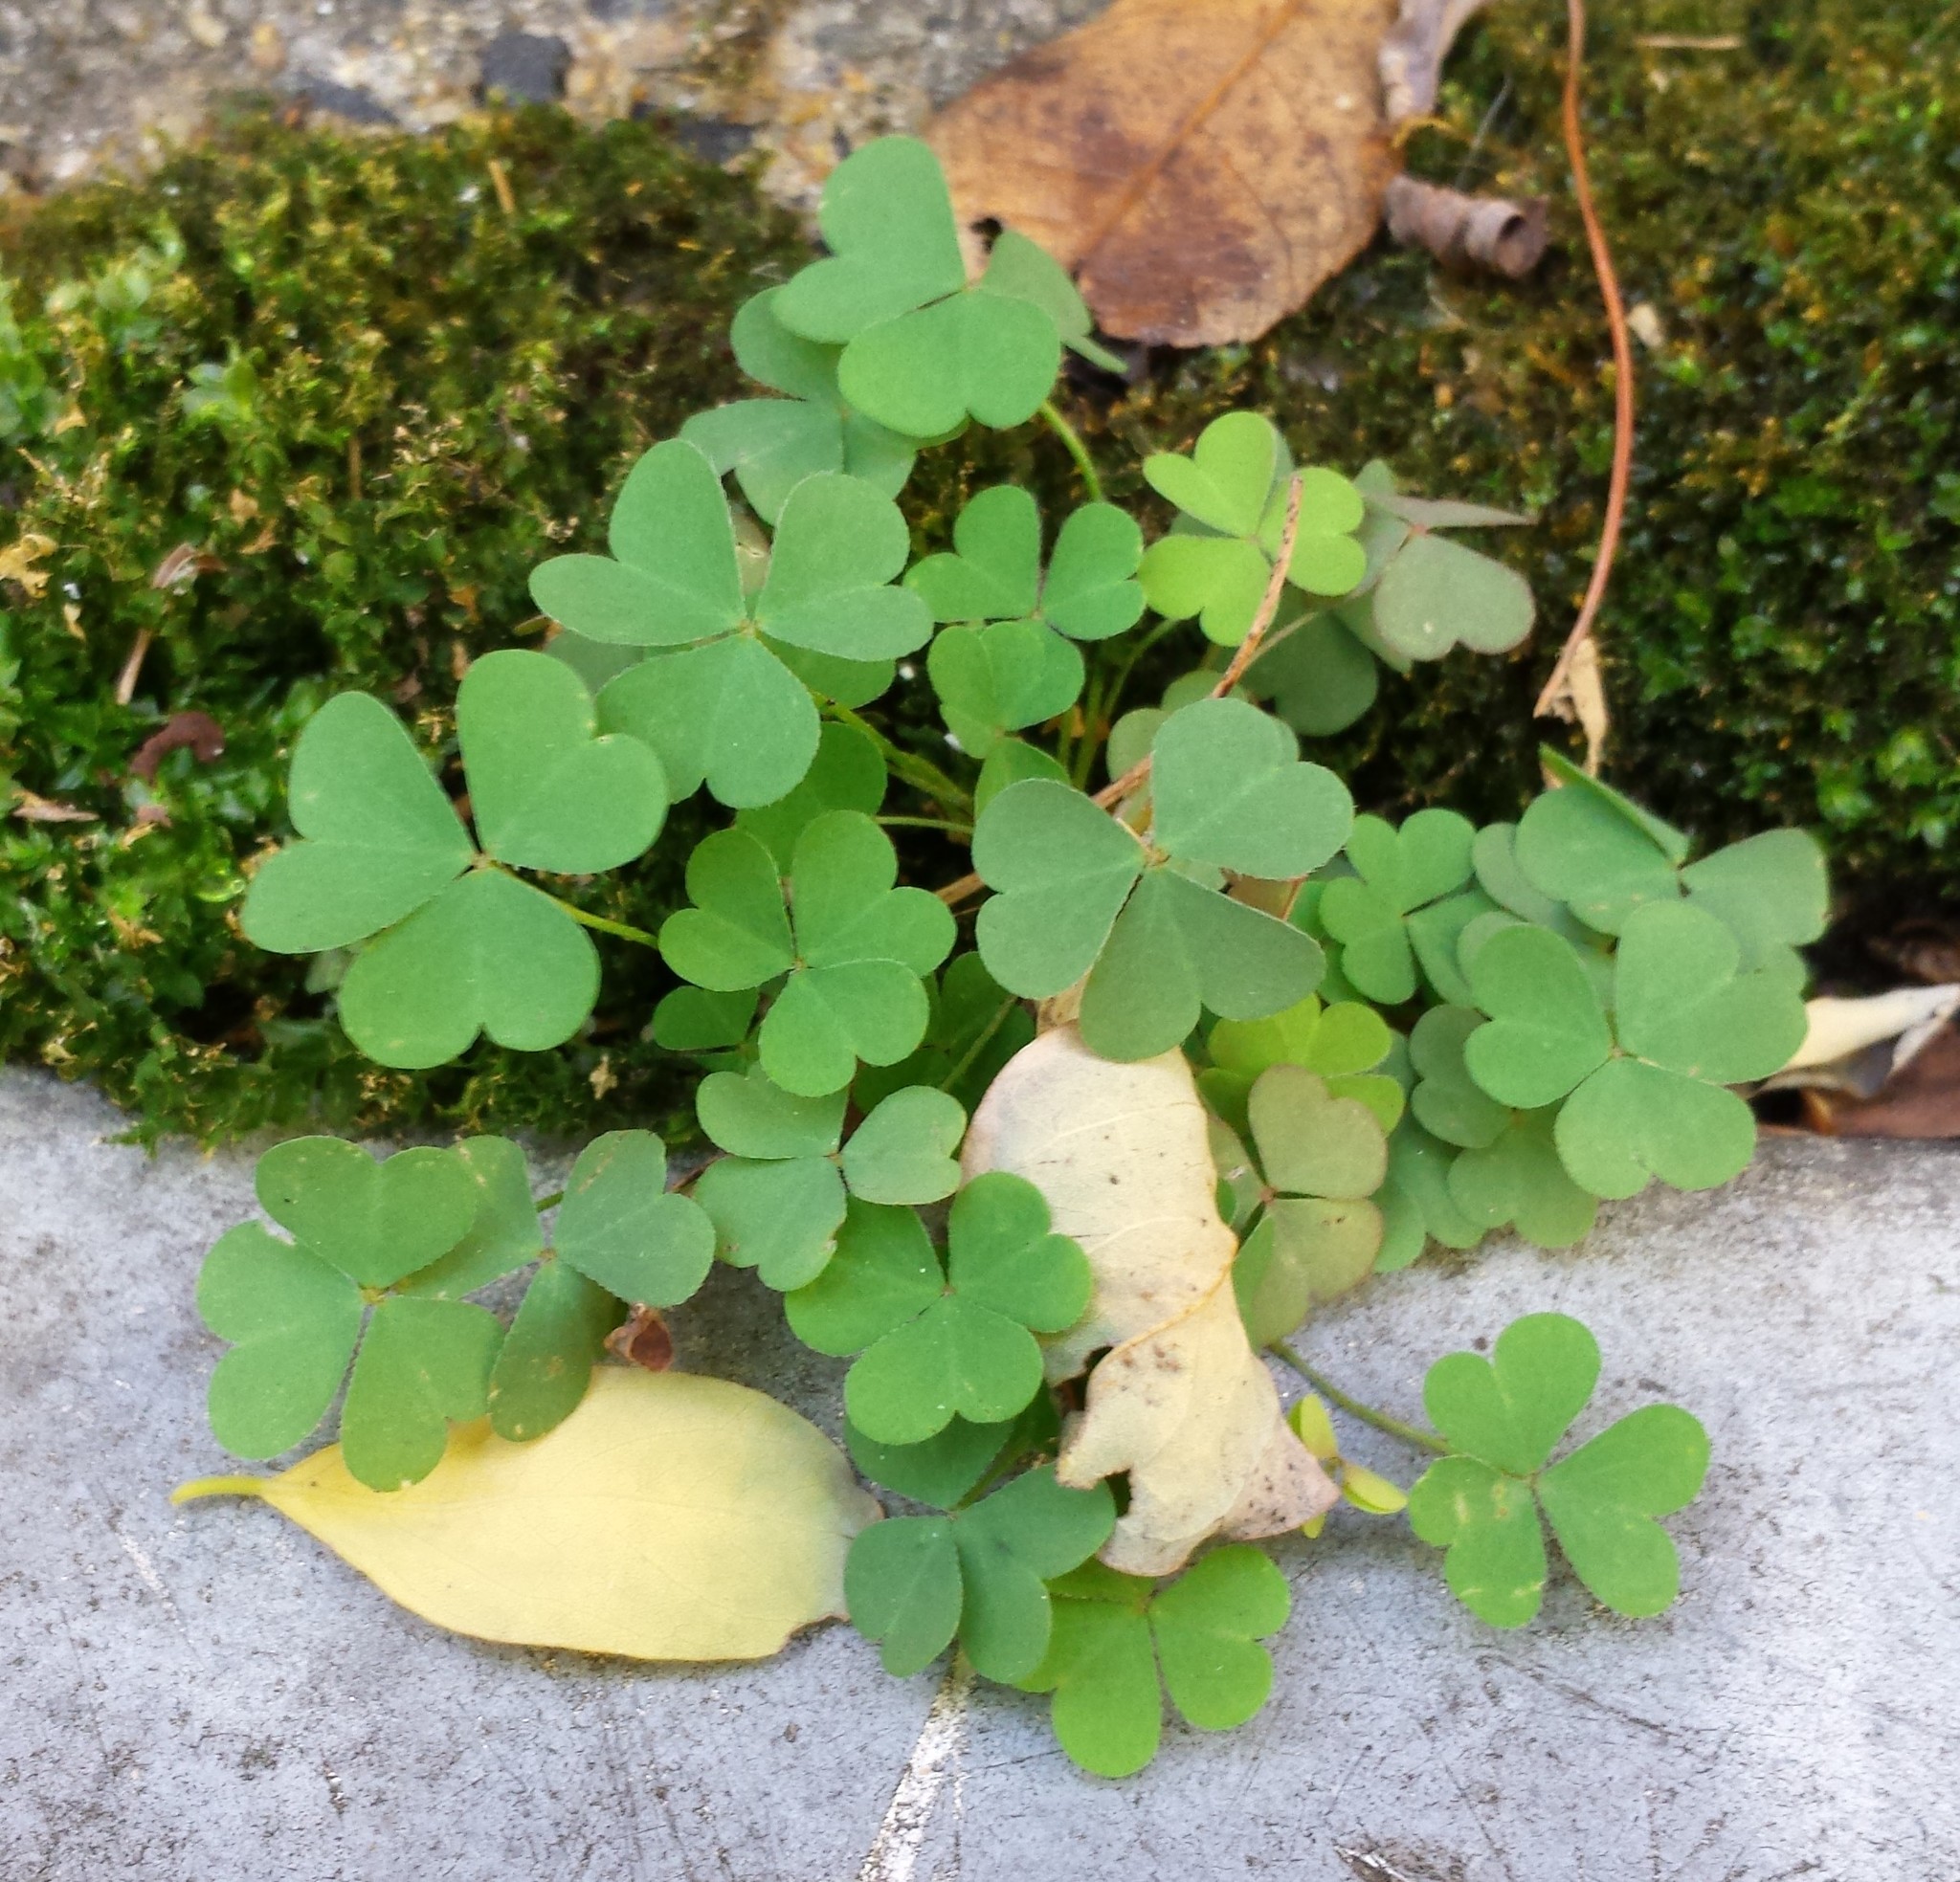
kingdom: Plantae
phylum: Tracheophyta
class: Magnoliopsida
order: Oxalidales
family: Oxalidaceae
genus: Oxalis
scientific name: Oxalis
